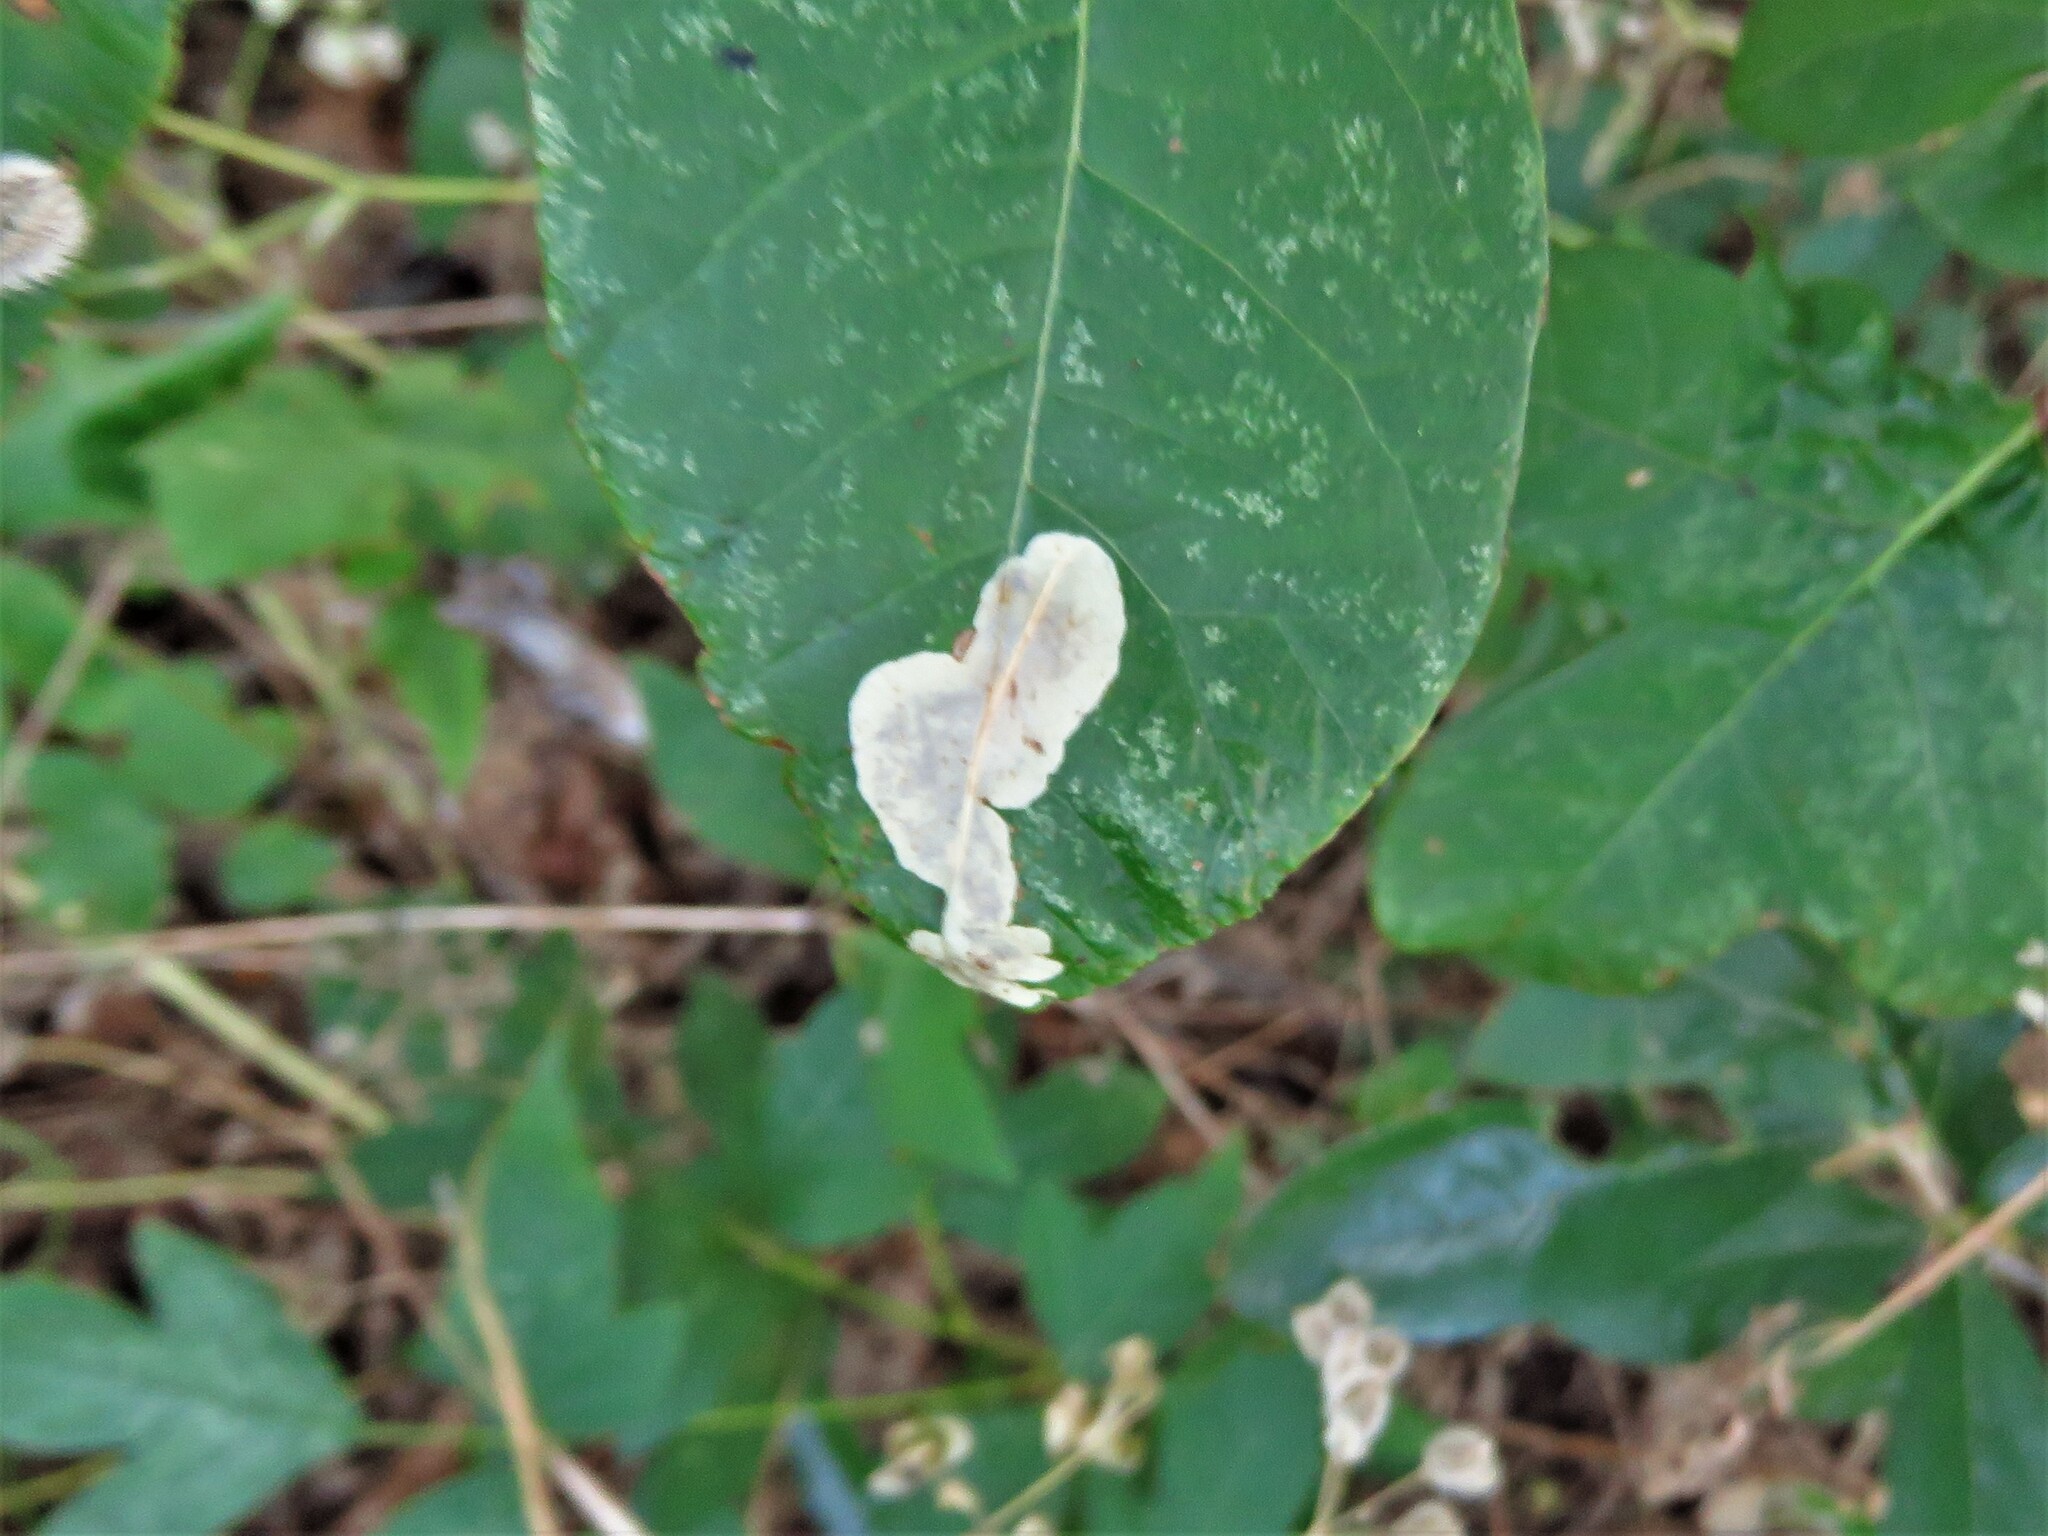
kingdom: Animalia
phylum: Arthropoda
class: Insecta
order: Lepidoptera
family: Gracillariidae
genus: Cameraria
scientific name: Cameraria guttifinitella
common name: Poison ivy leaf-miner moth
